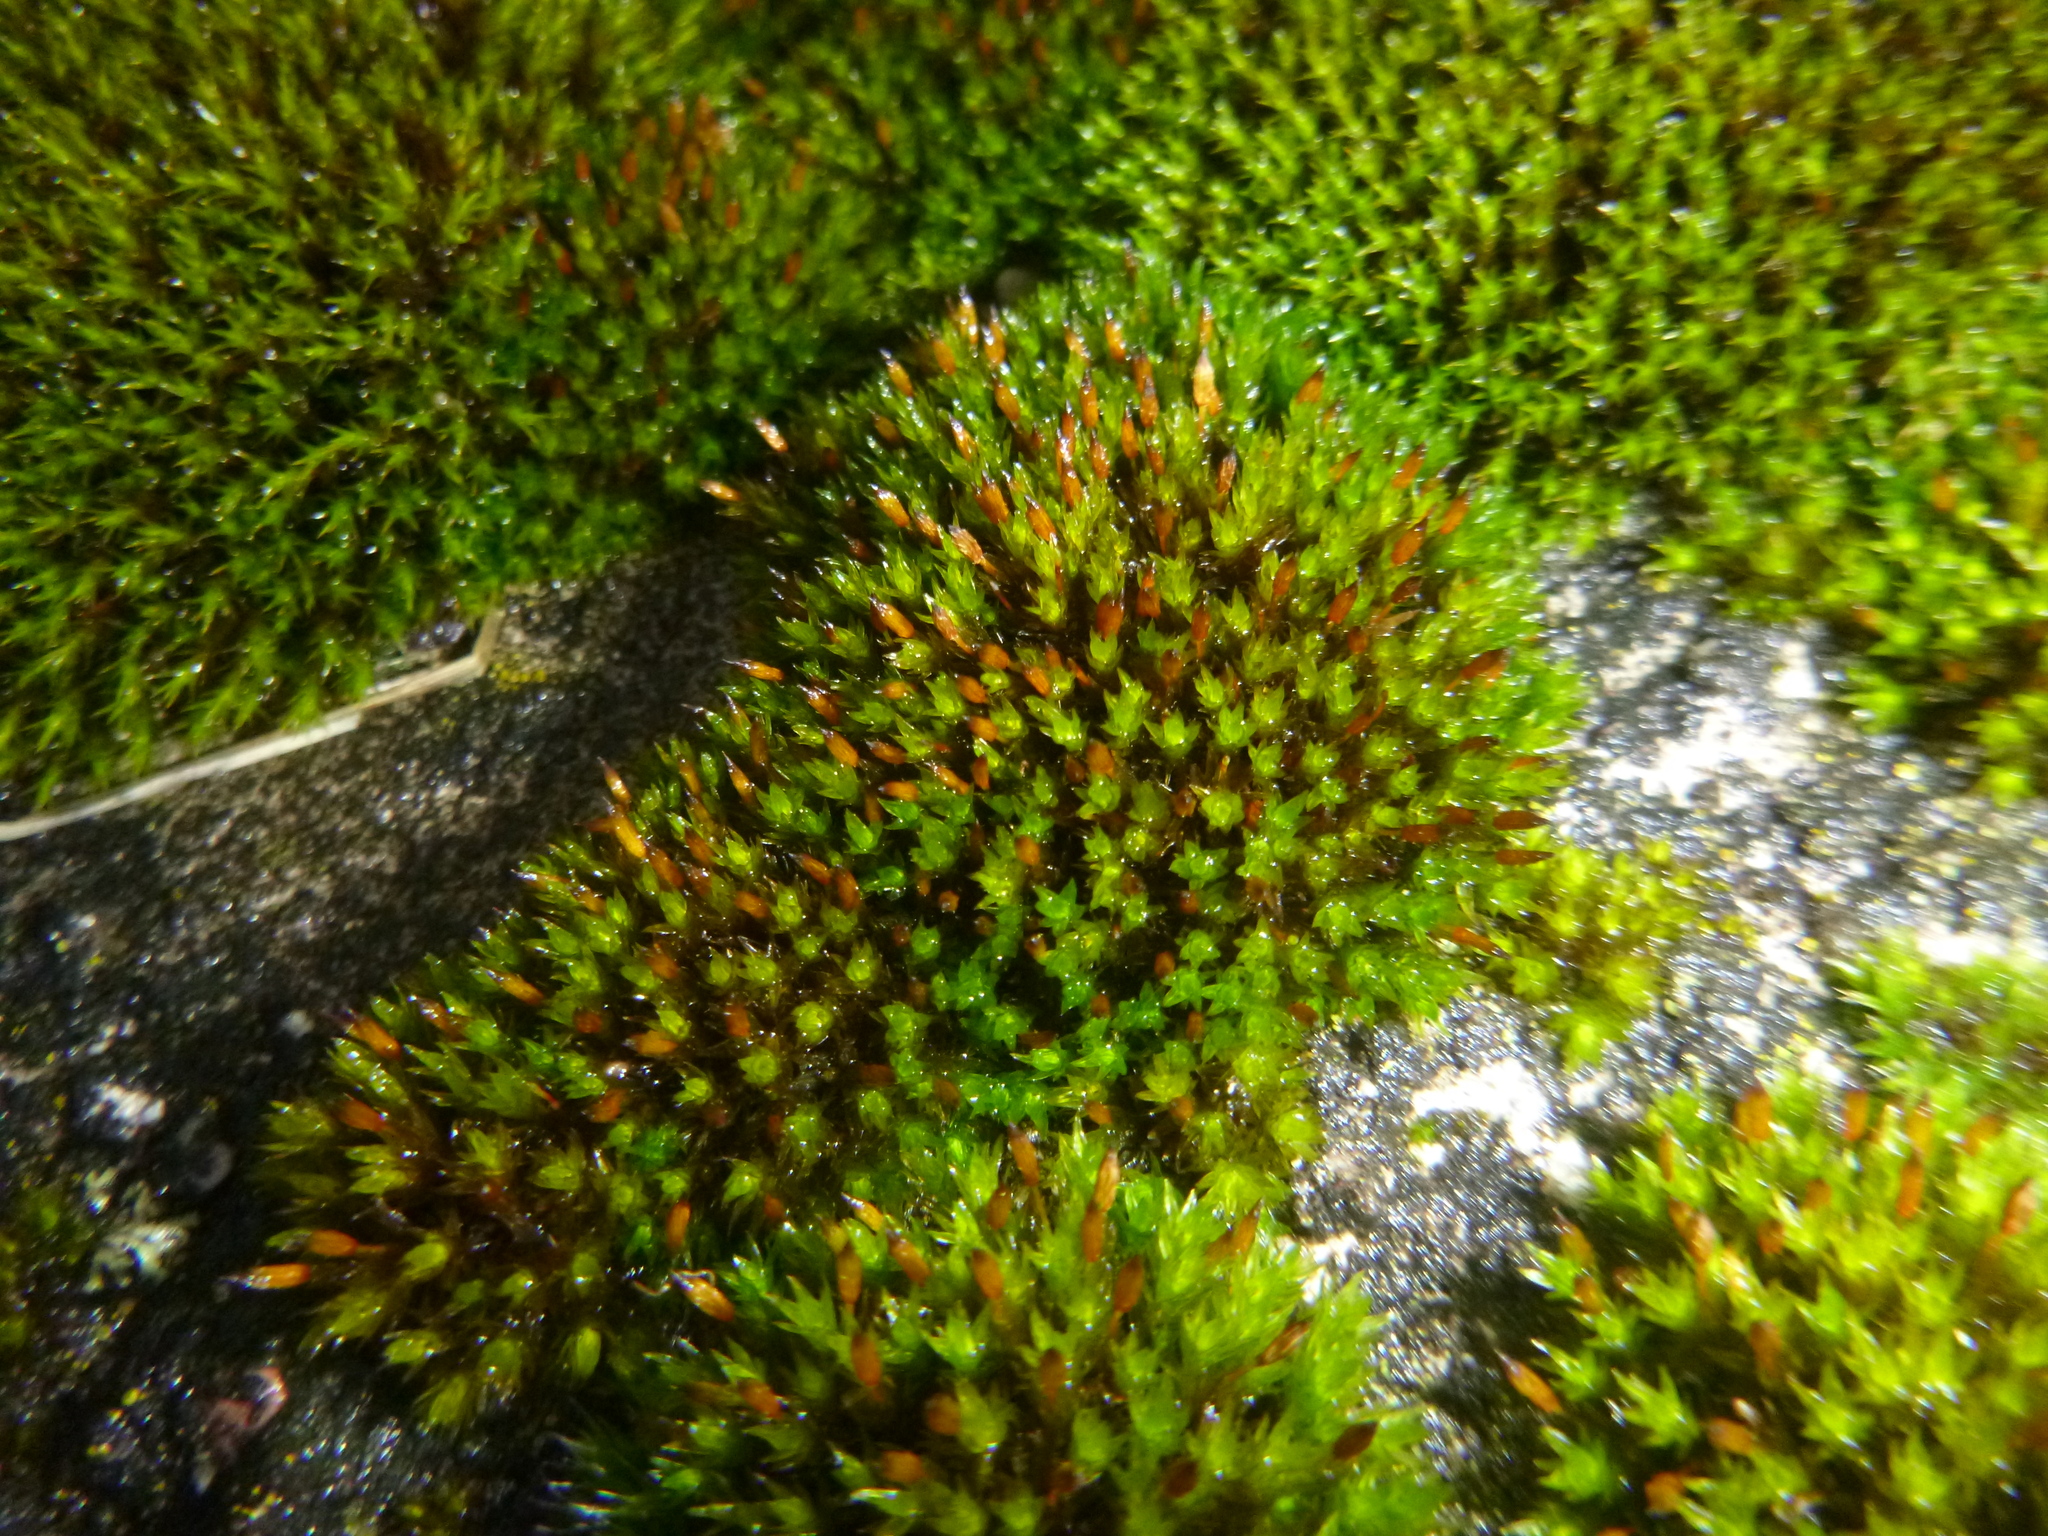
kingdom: Plantae
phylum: Bryophyta
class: Bryopsida
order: Orthotrichales
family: Orthotrichaceae
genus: Orthotrichum
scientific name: Orthotrichum anomalum
